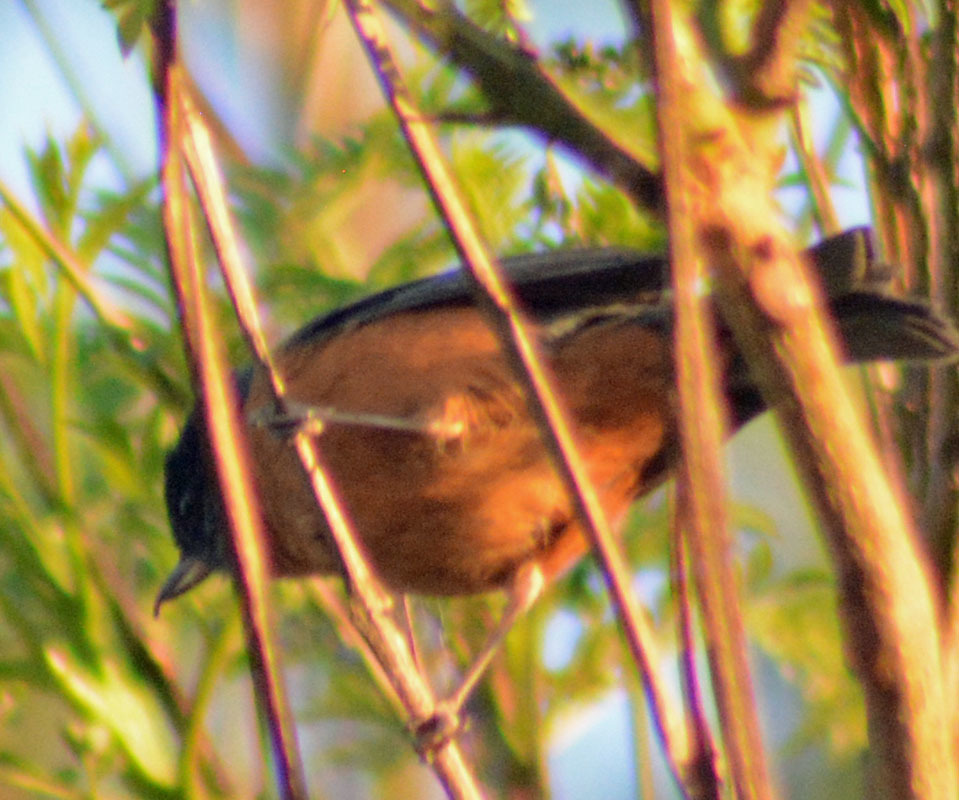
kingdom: Animalia
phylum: Chordata
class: Aves
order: Passeriformes
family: Thraupidae
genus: Diglossa
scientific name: Diglossa baritula
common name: Cinnamon-bellied flowerpiercer
